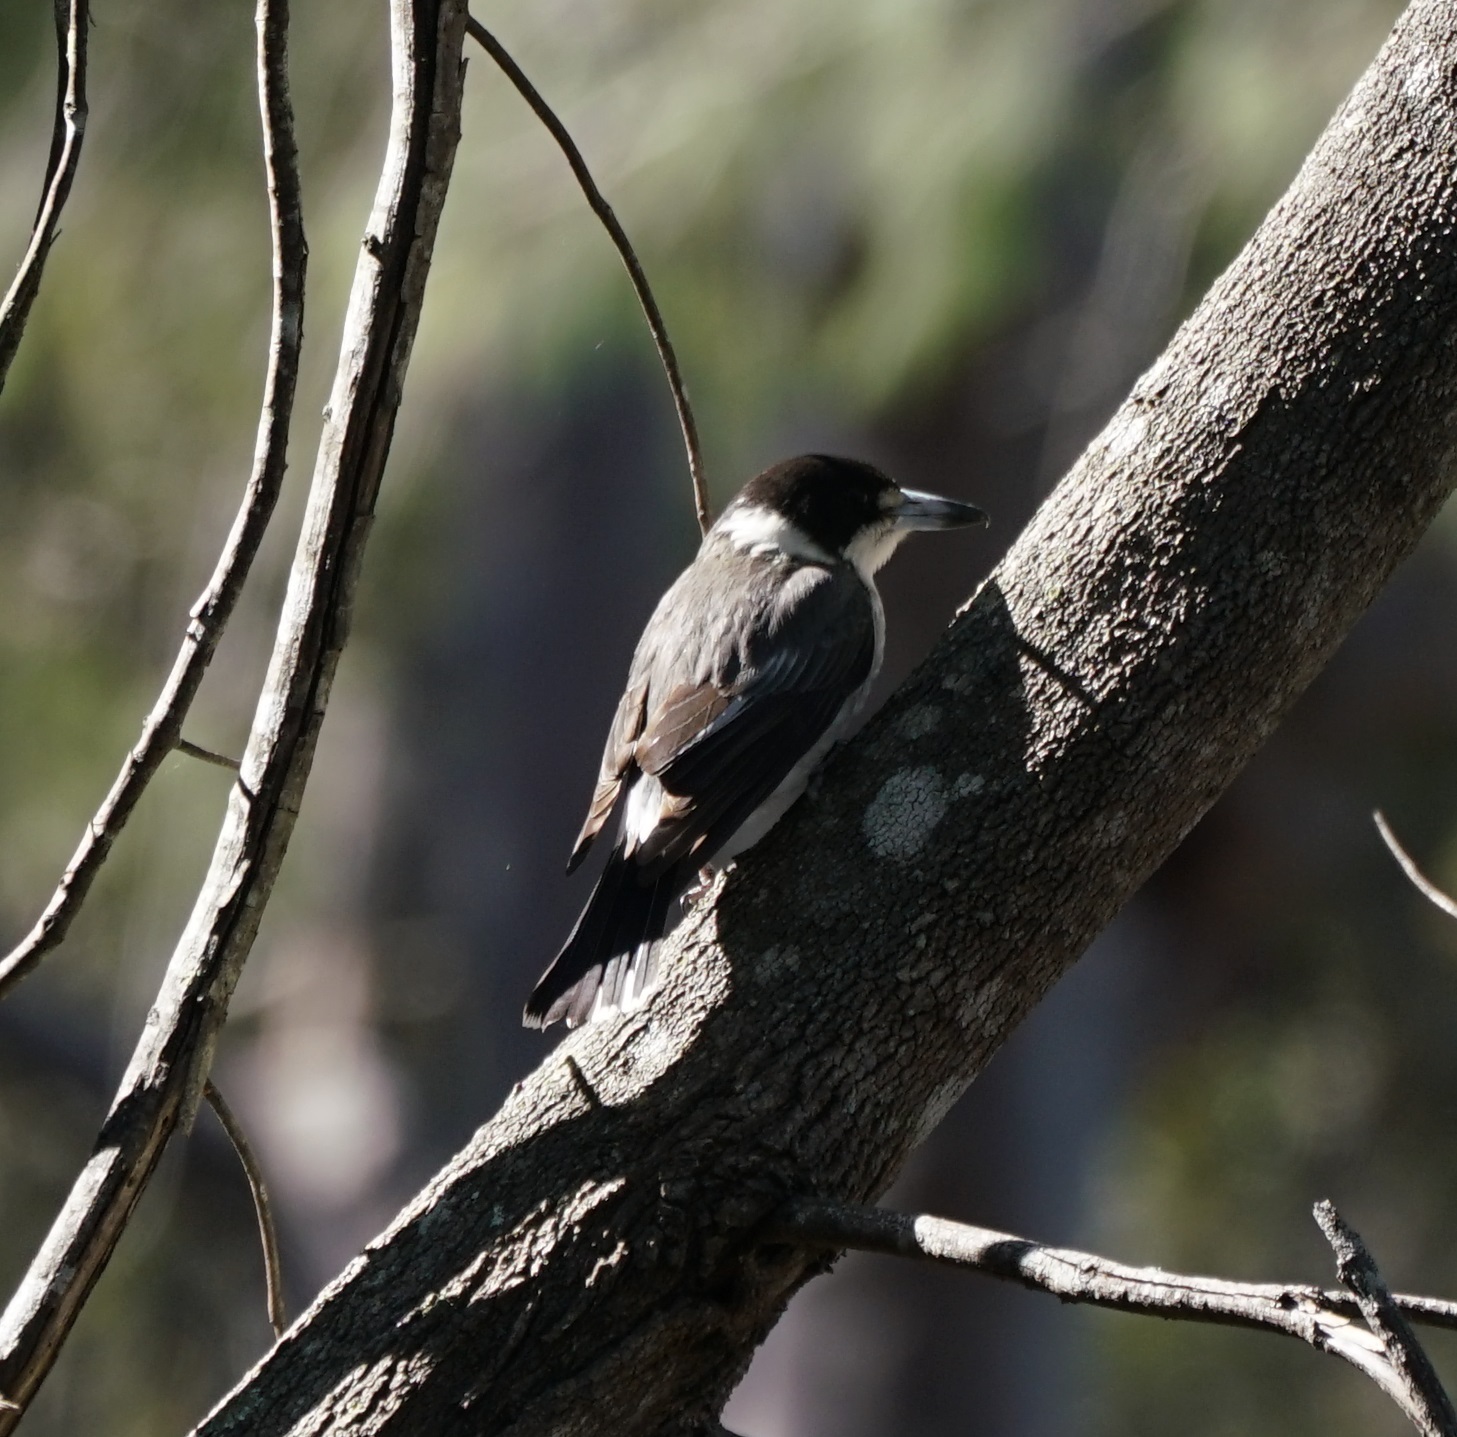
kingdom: Animalia
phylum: Chordata
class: Aves
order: Passeriformes
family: Cracticidae
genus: Cracticus
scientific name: Cracticus torquatus
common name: Grey butcherbird
